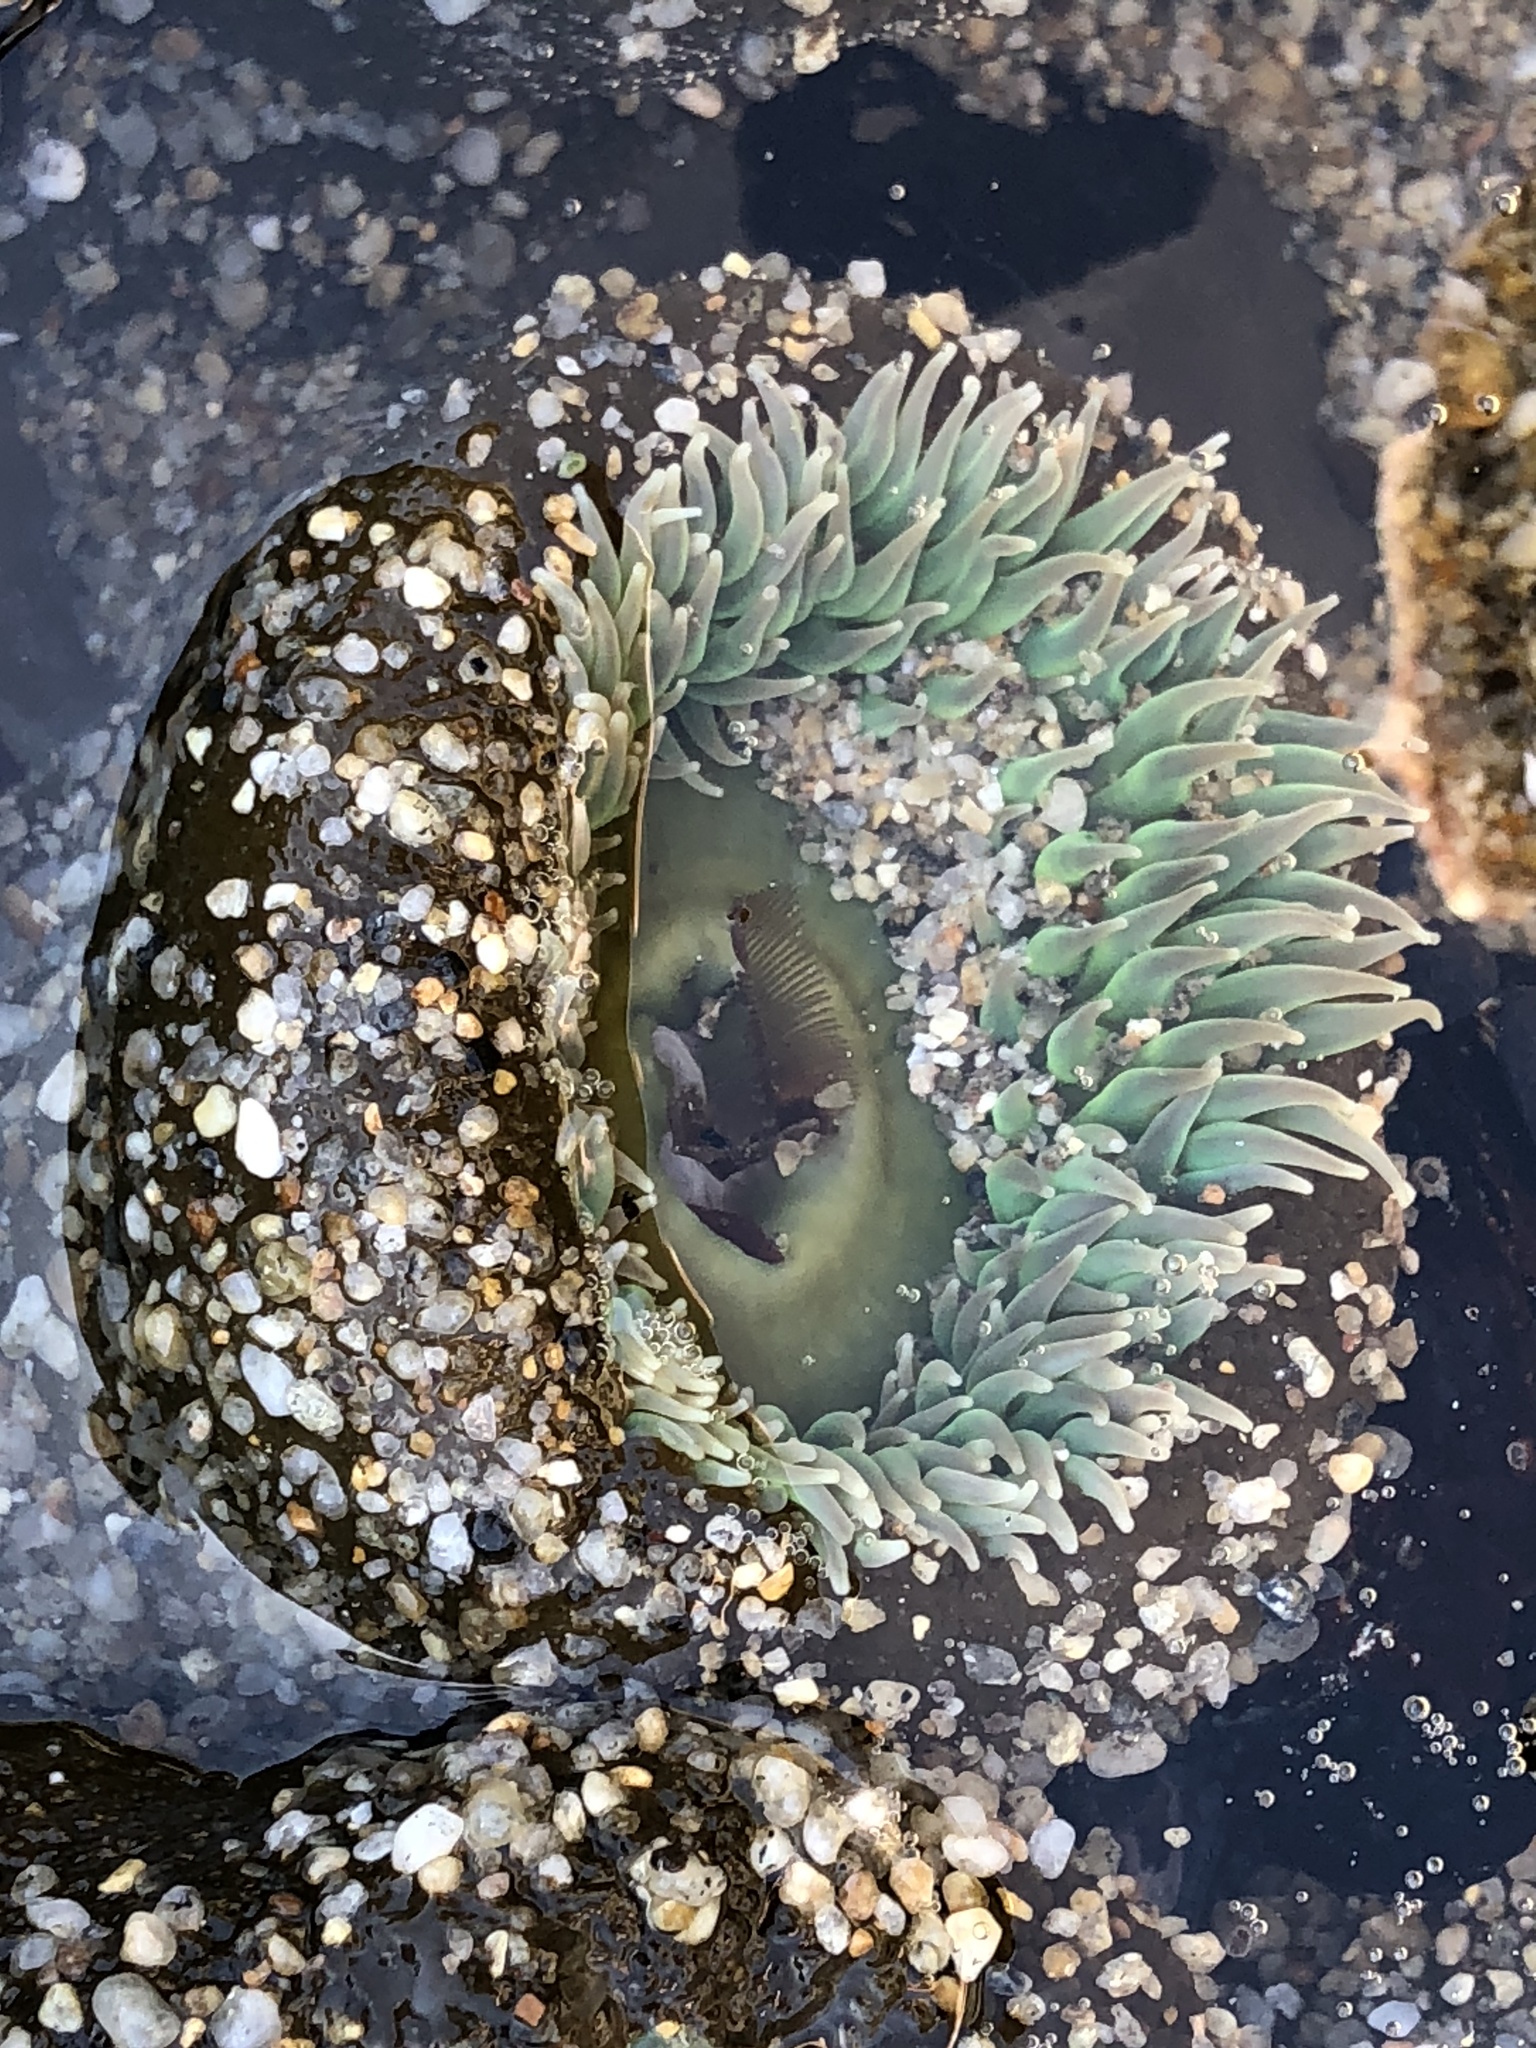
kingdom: Animalia
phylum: Cnidaria
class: Anthozoa
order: Actiniaria
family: Actiniidae
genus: Anthopleura
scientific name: Anthopleura xanthogrammica
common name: Giant green anemone
